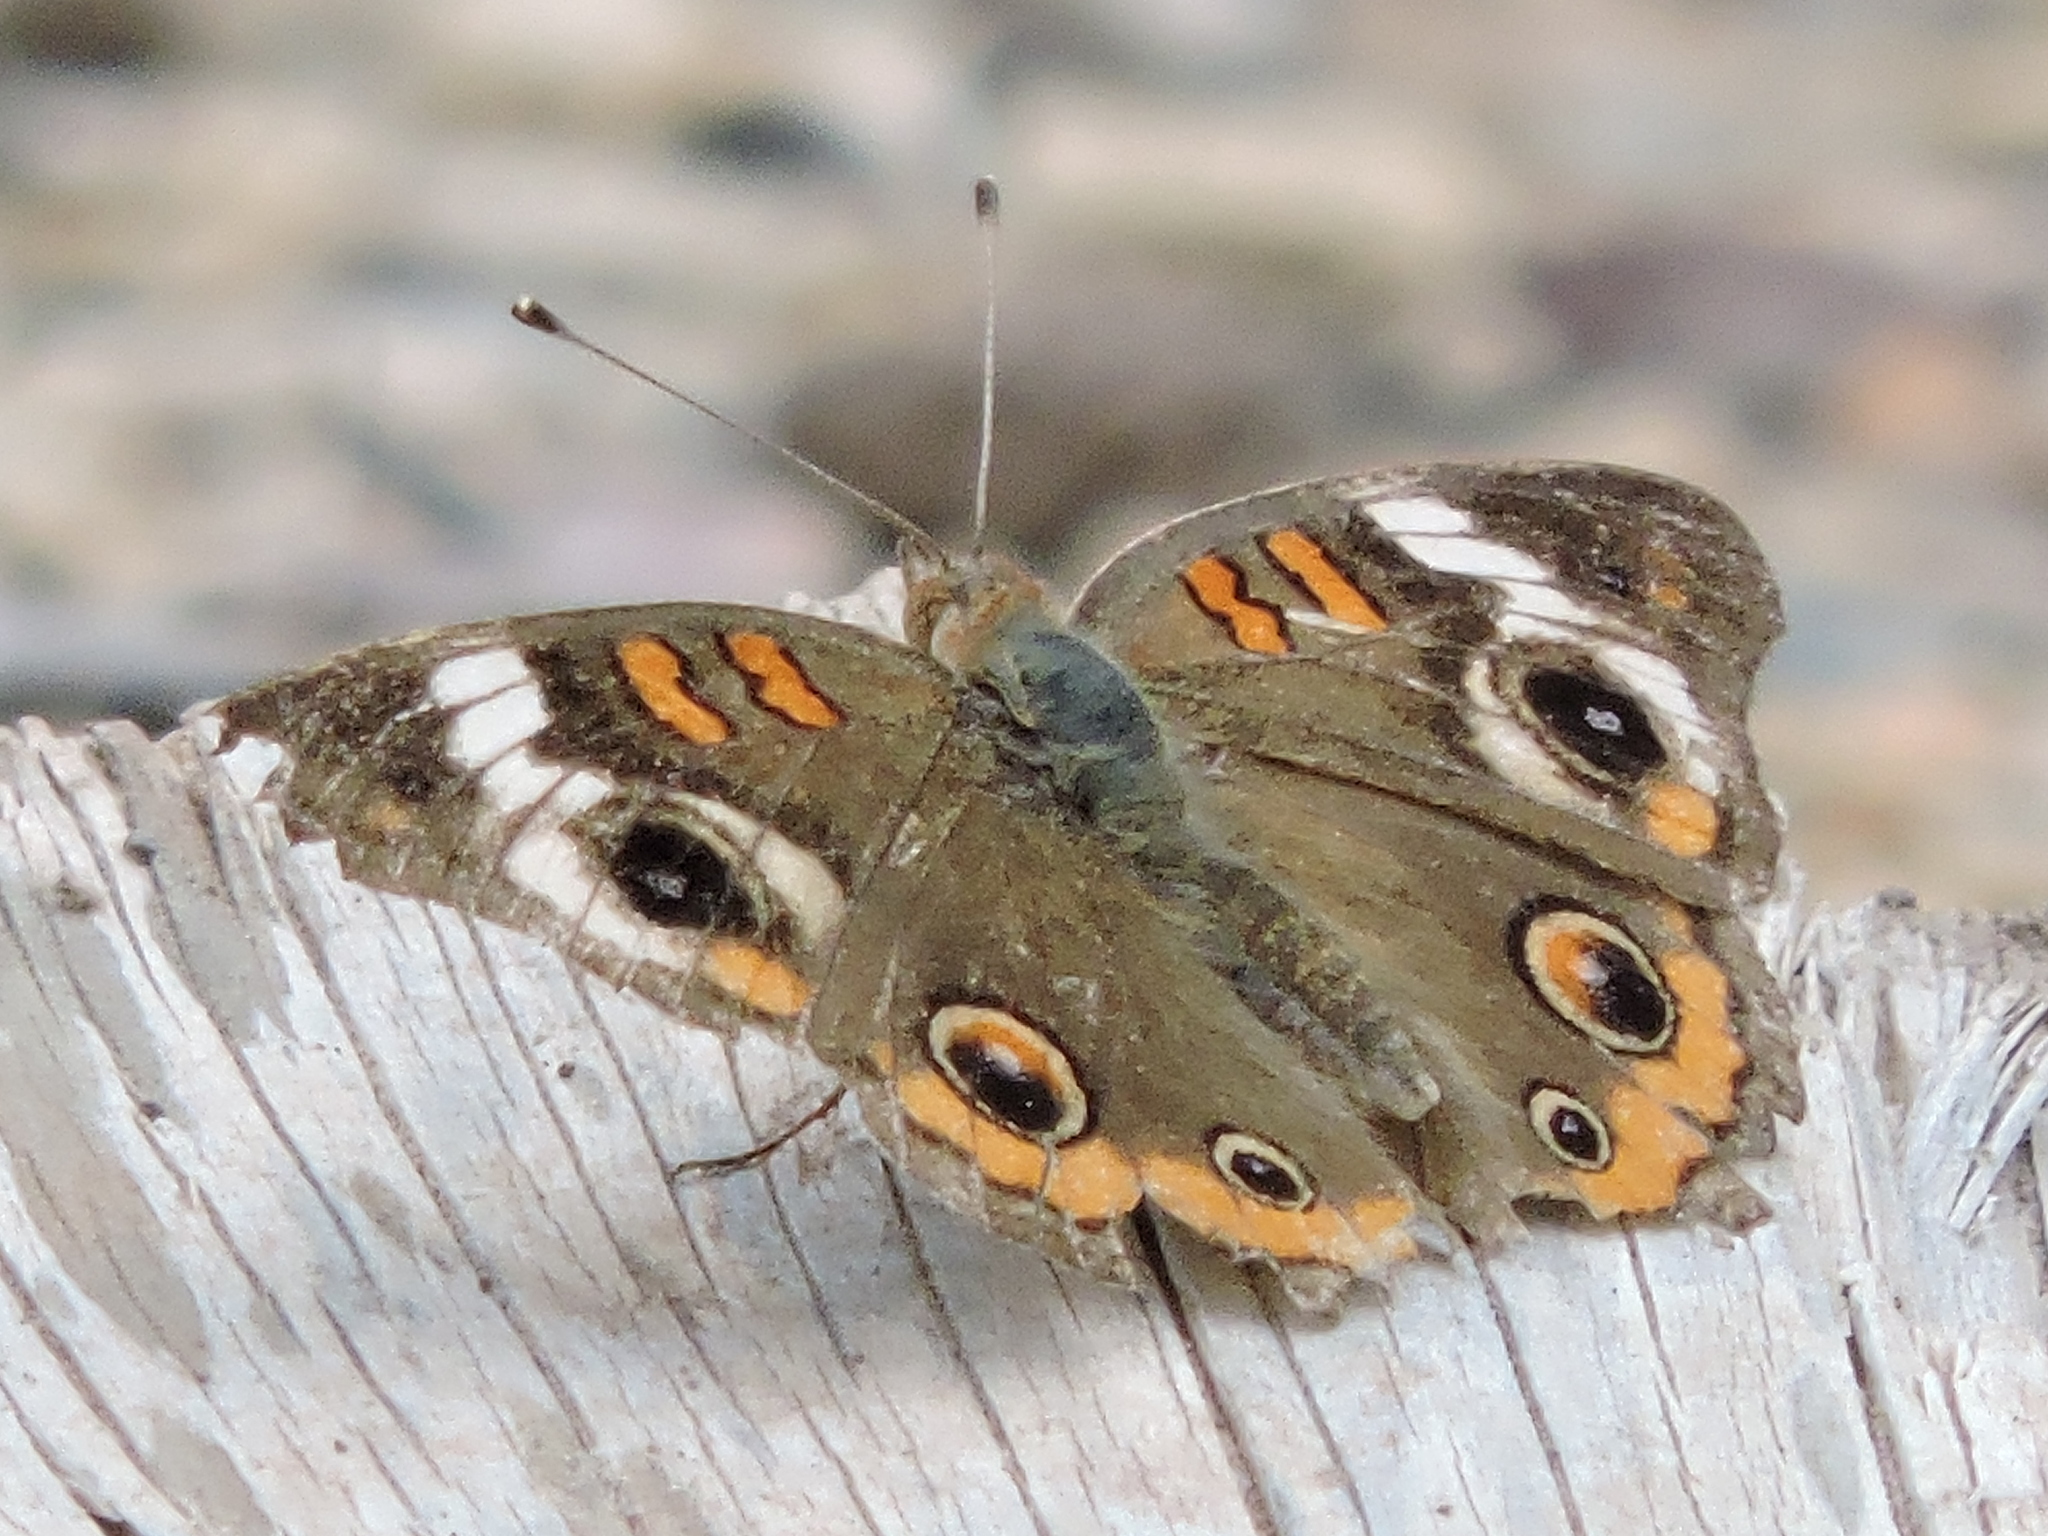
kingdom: Animalia
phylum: Arthropoda
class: Insecta
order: Lepidoptera
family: Nymphalidae
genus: Junonia
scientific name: Junonia coenia
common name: Common buckeye
